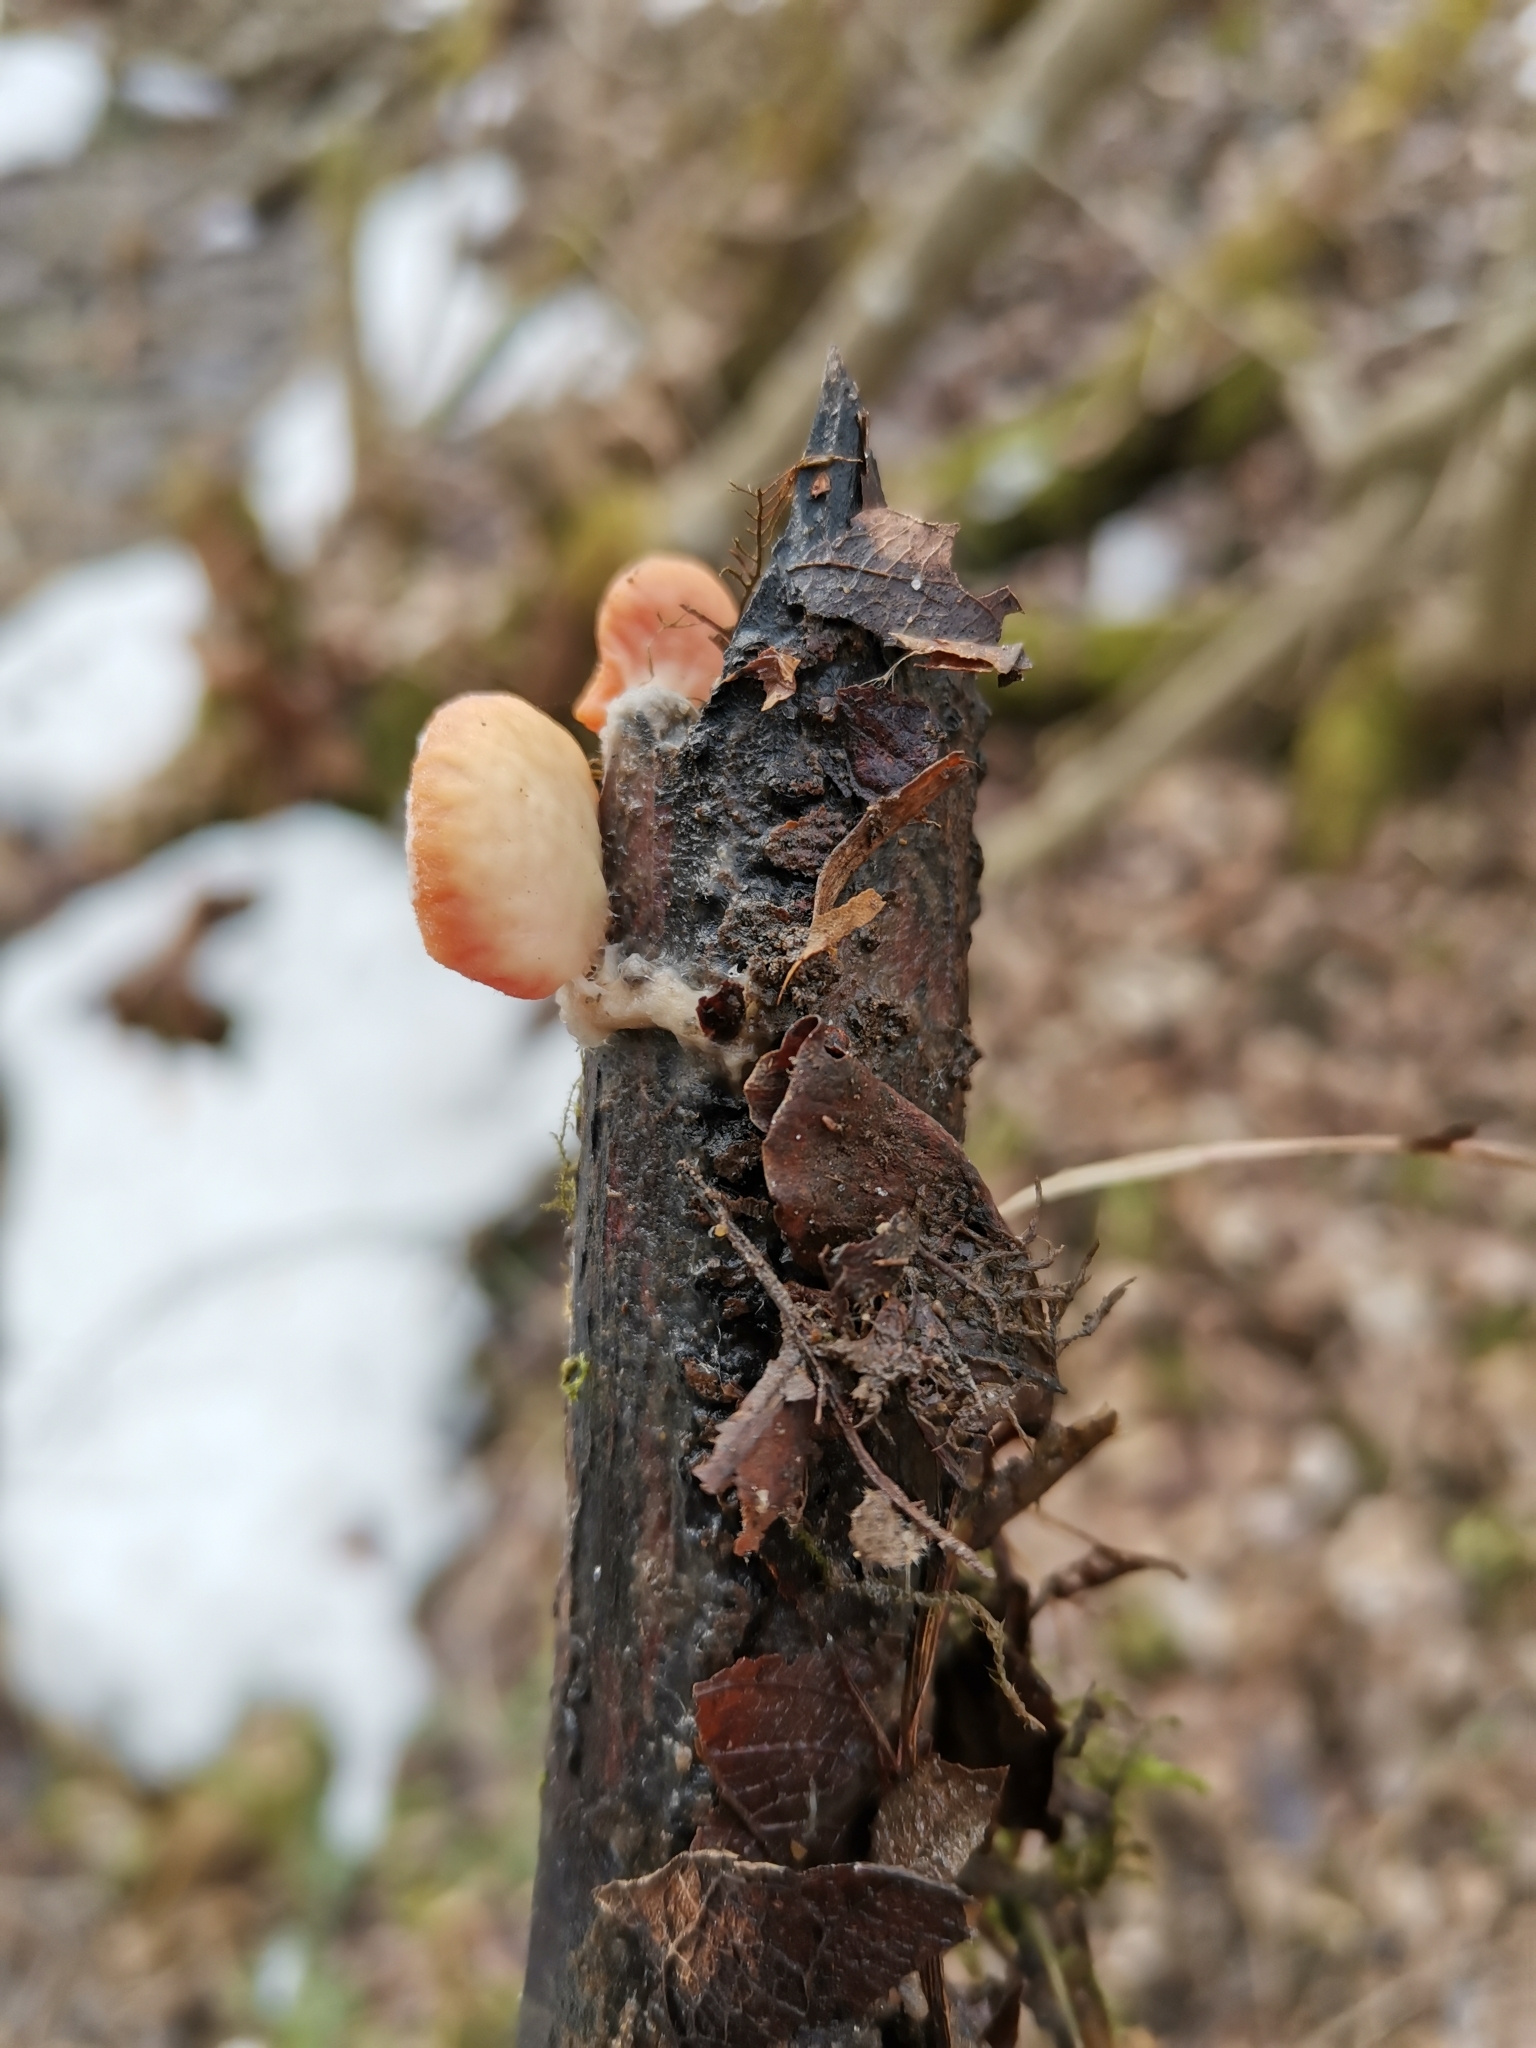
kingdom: Fungi
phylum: Ascomycota
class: Pezizomycetes
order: Pezizales
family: Sarcoscyphaceae
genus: Sarcoscypha
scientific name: Sarcoscypha austriaca
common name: Scarlet elfcup
